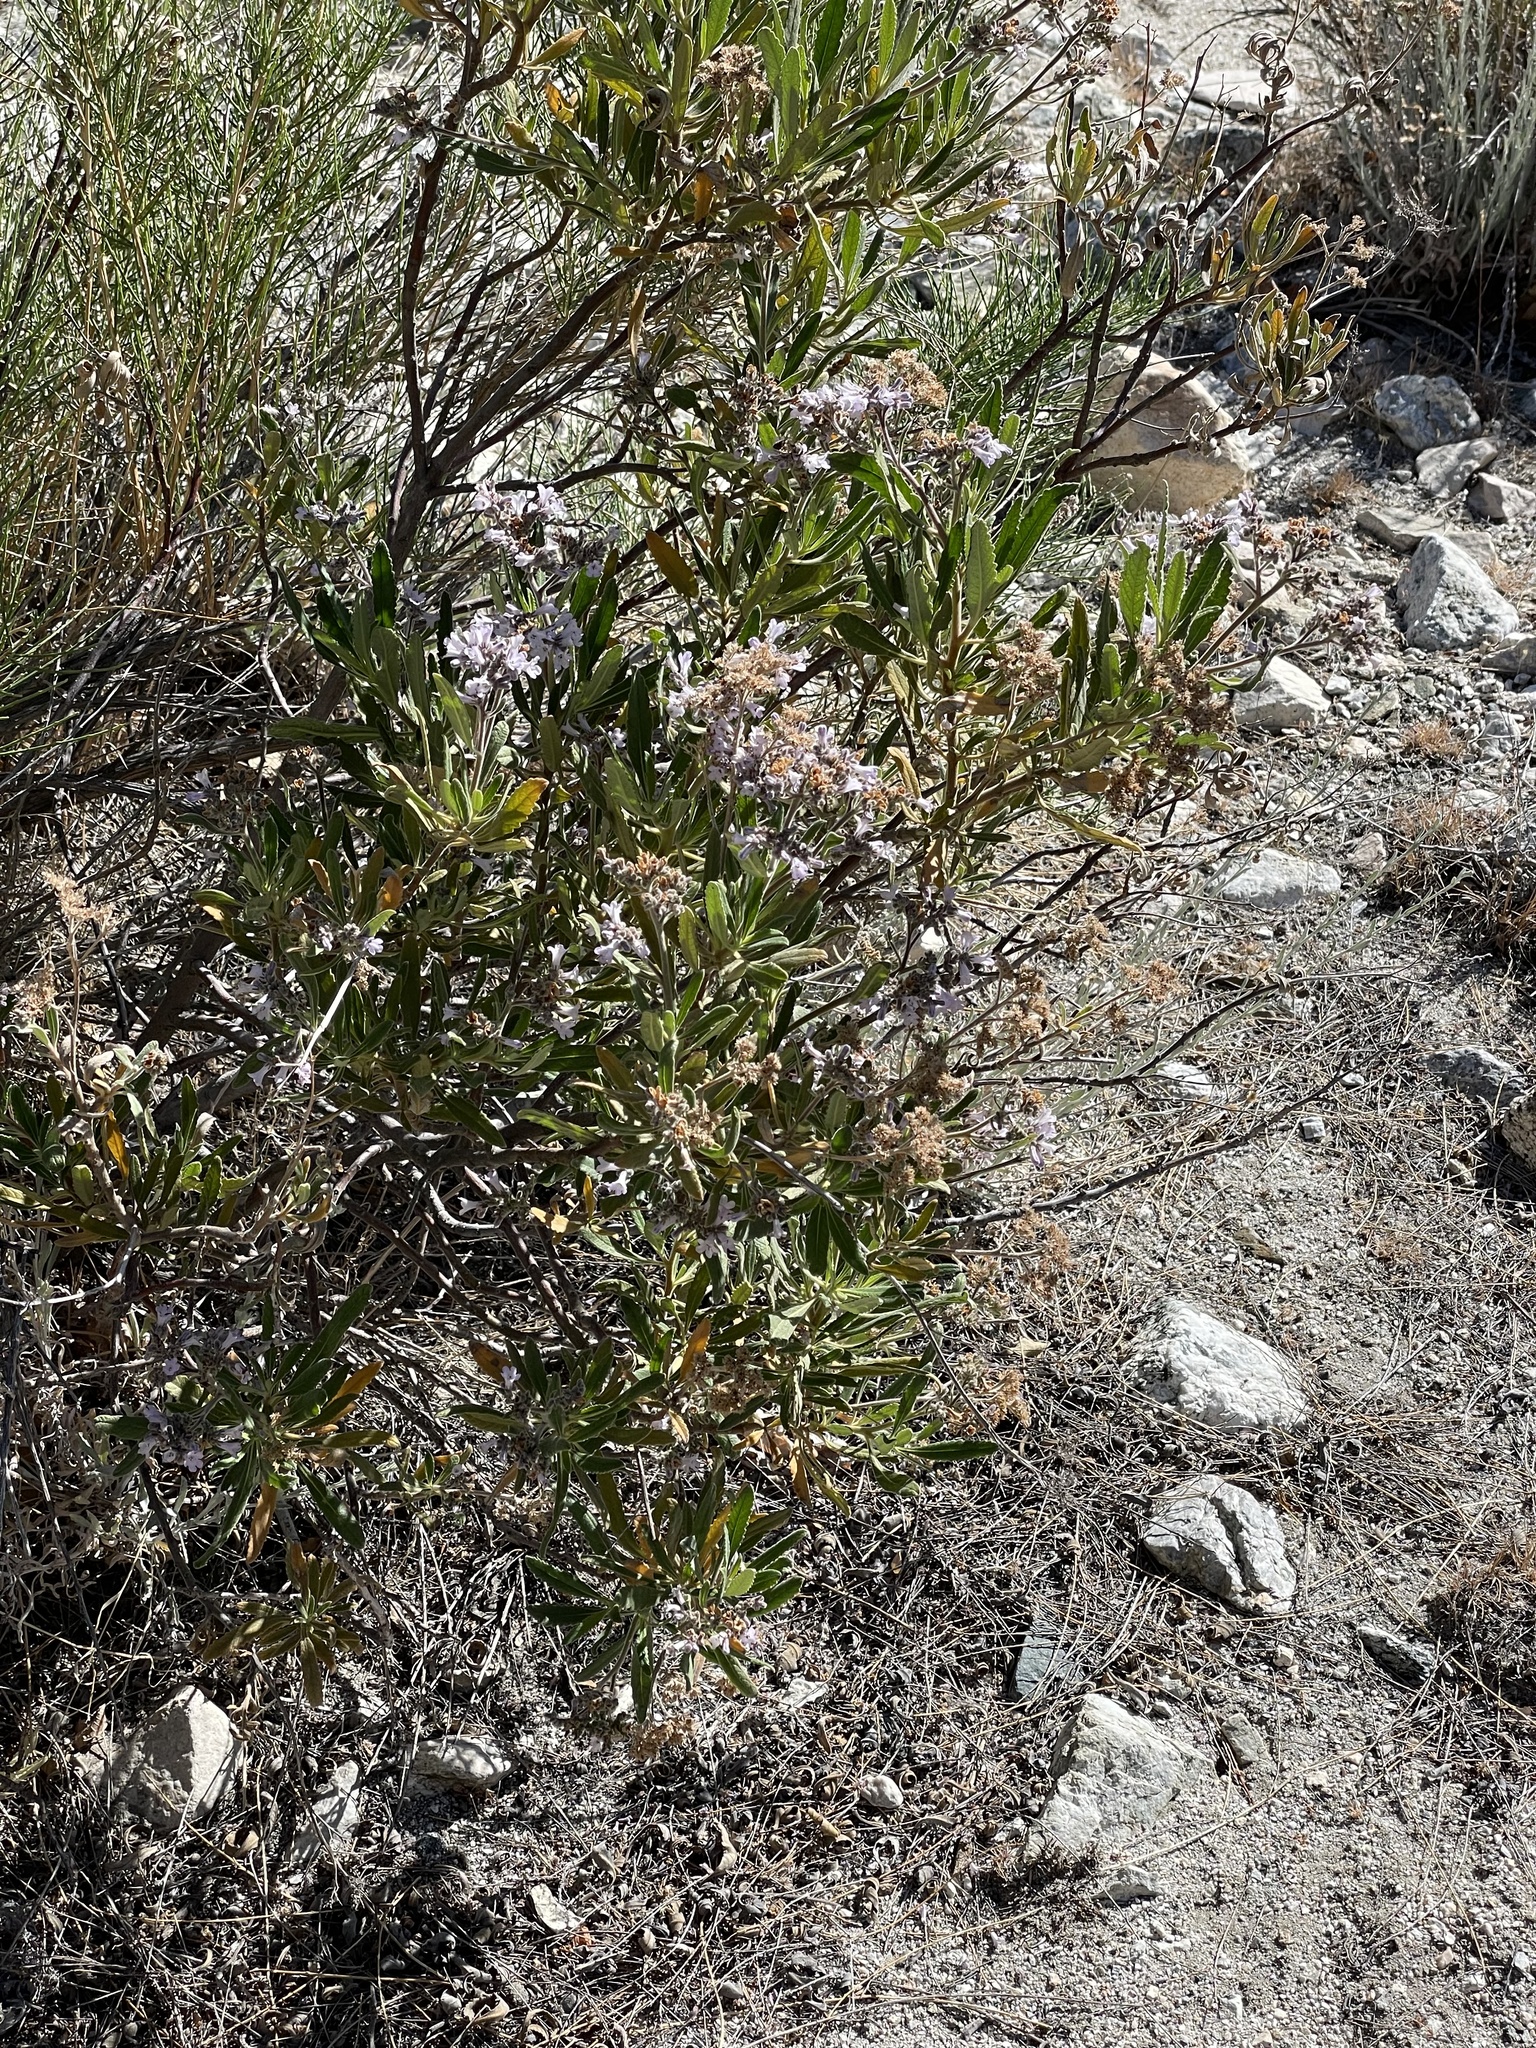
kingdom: Plantae
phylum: Tracheophyta
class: Magnoliopsida
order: Boraginales
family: Namaceae
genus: Eriodictyon
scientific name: Eriodictyon crassifolium
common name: Thick-leaf yerba-santa
